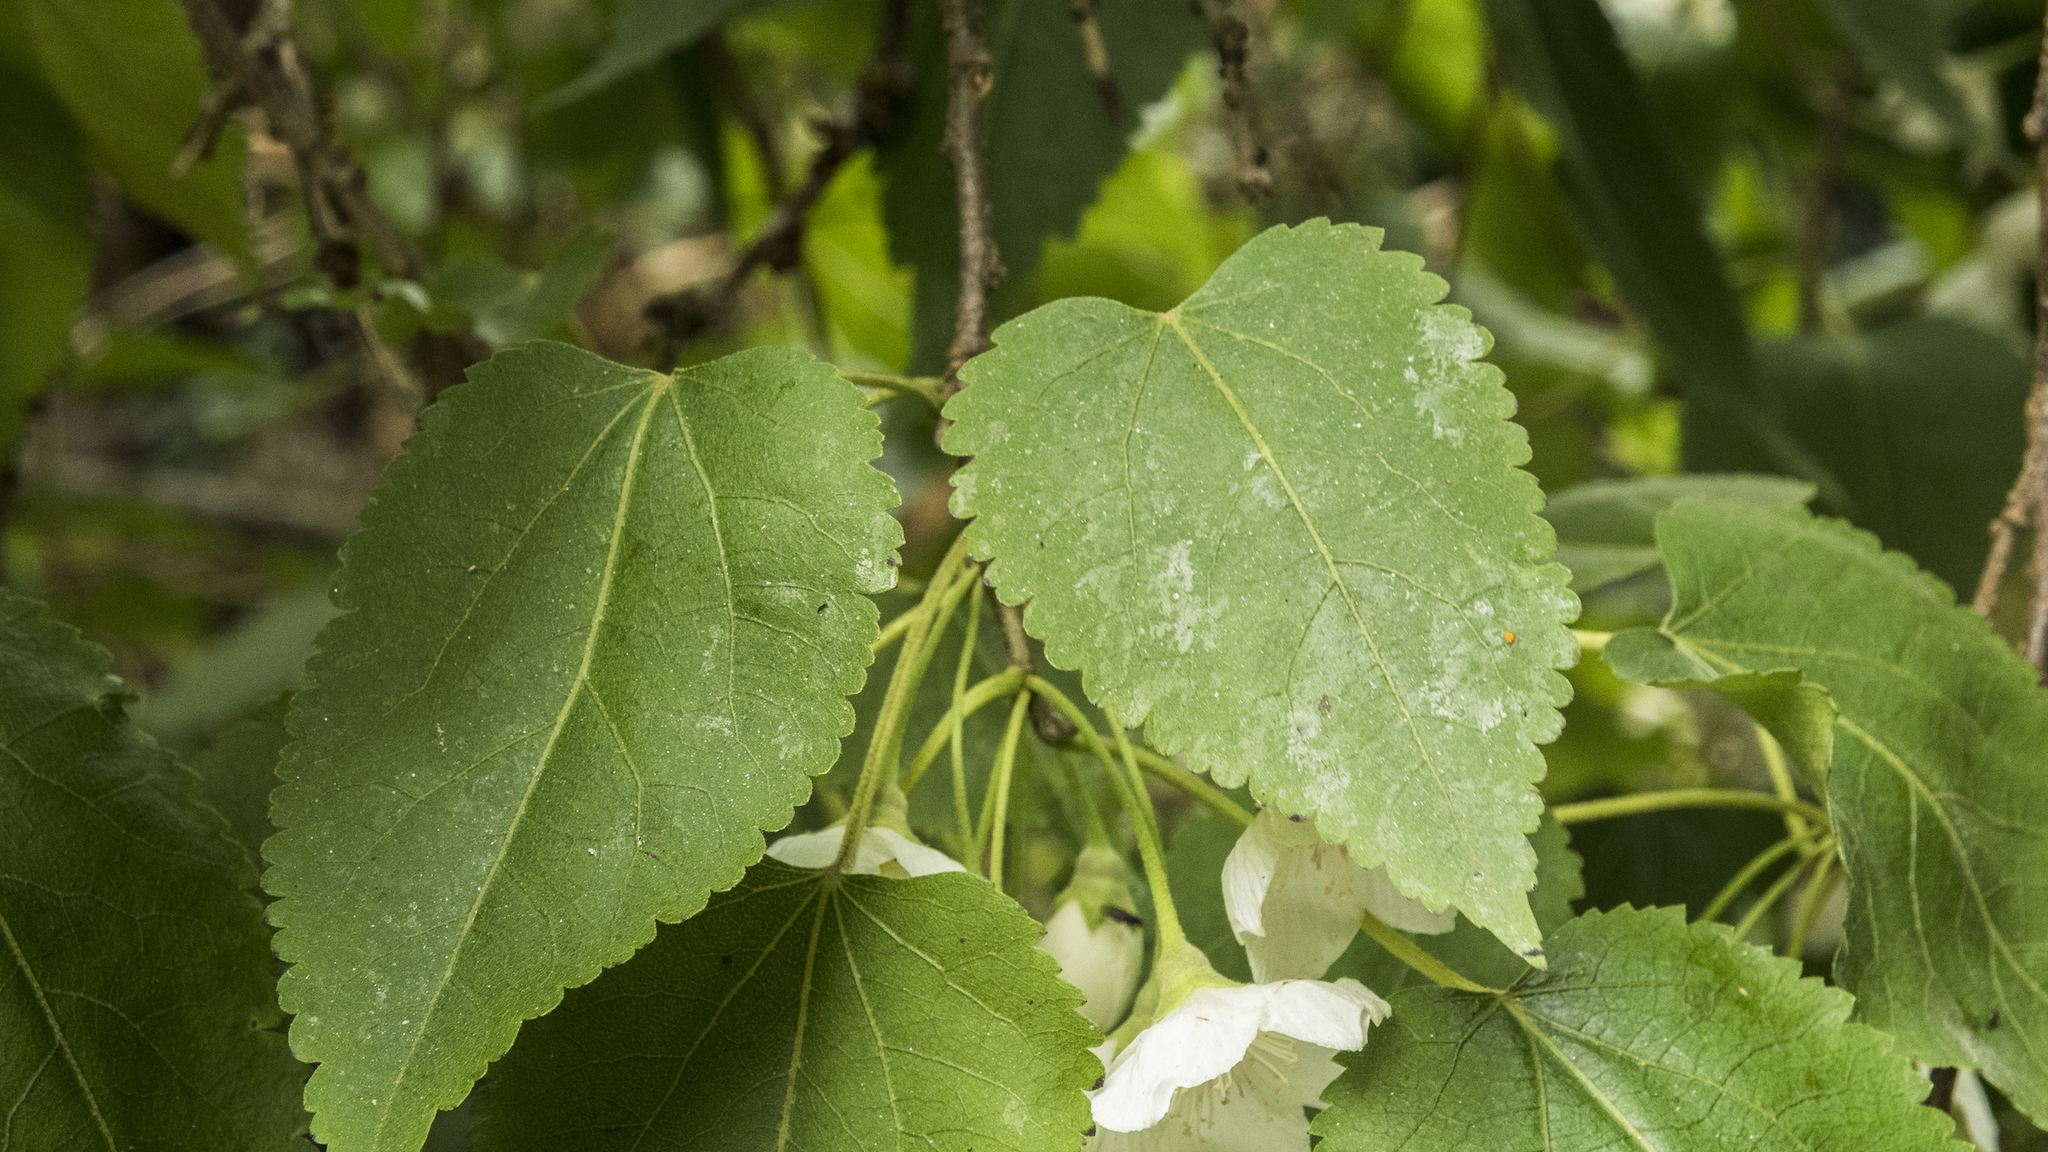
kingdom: Plantae
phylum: Tracheophyta
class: Magnoliopsida
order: Malvales
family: Malvaceae
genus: Hoheria
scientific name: Hoheria glabrata
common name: Mountain-ribbon
